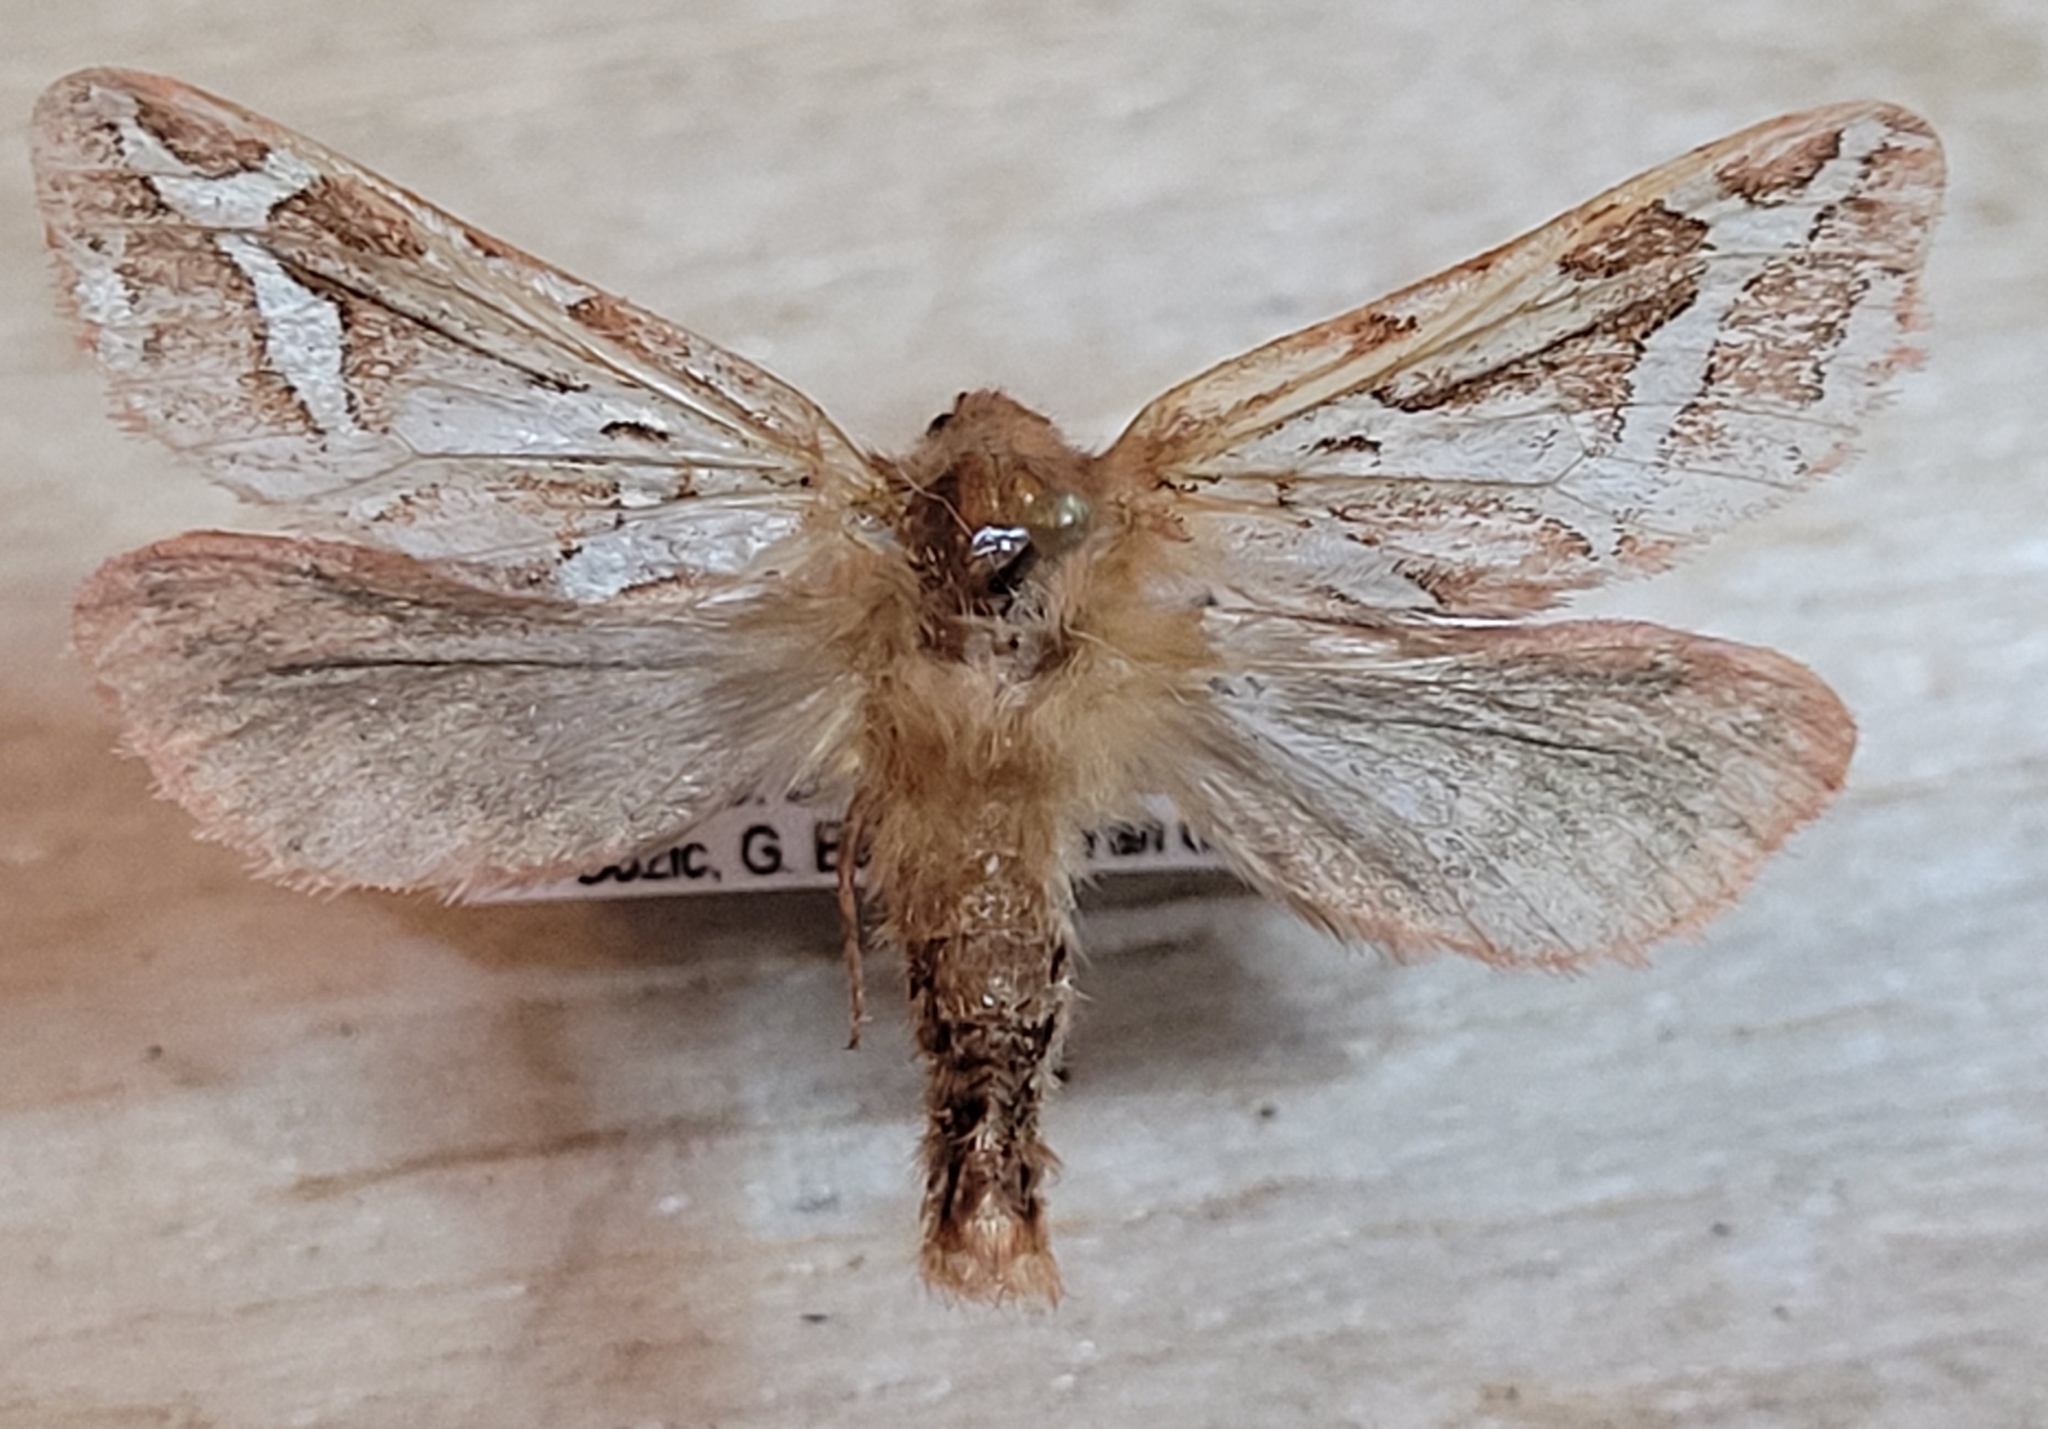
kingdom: Animalia
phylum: Arthropoda
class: Insecta
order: Lepidoptera
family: Hepialidae
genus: Gazoryctra
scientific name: Gazoryctra hyperboreus
